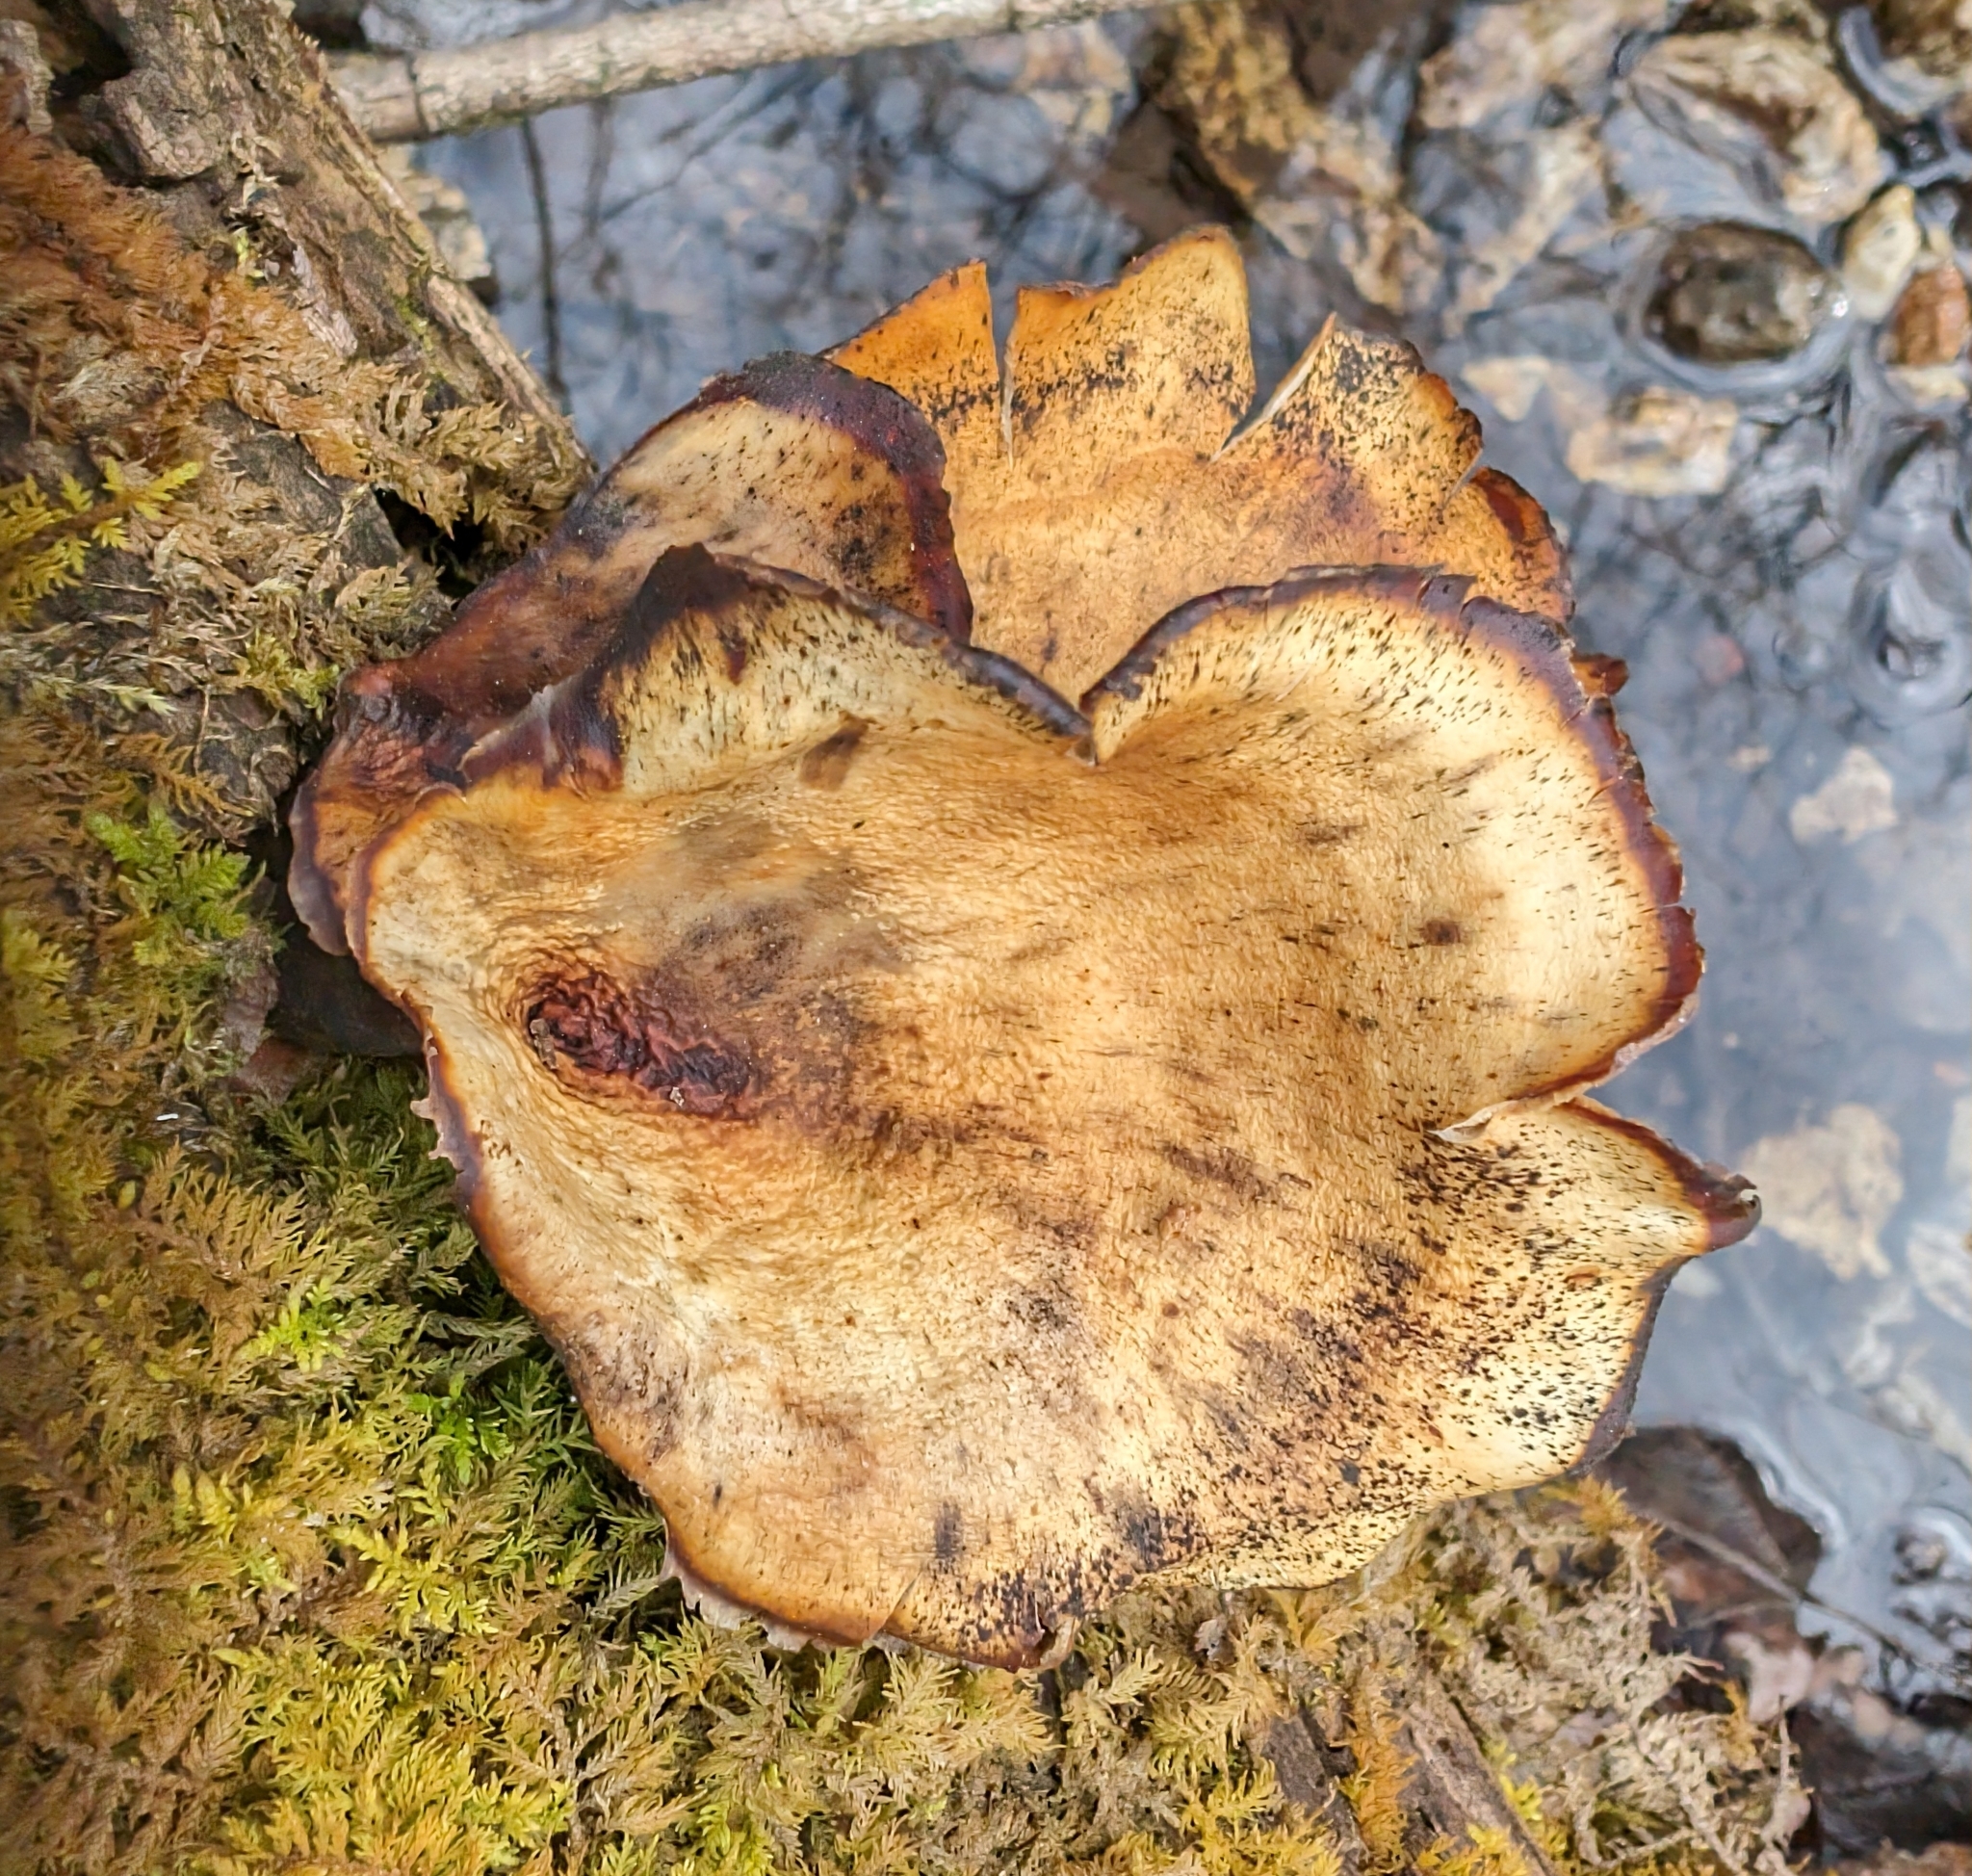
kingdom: Fungi
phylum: Basidiomycota
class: Agaricomycetes
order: Polyporales
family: Polyporaceae
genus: Picipes
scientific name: Picipes badius
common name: Bay polypore
